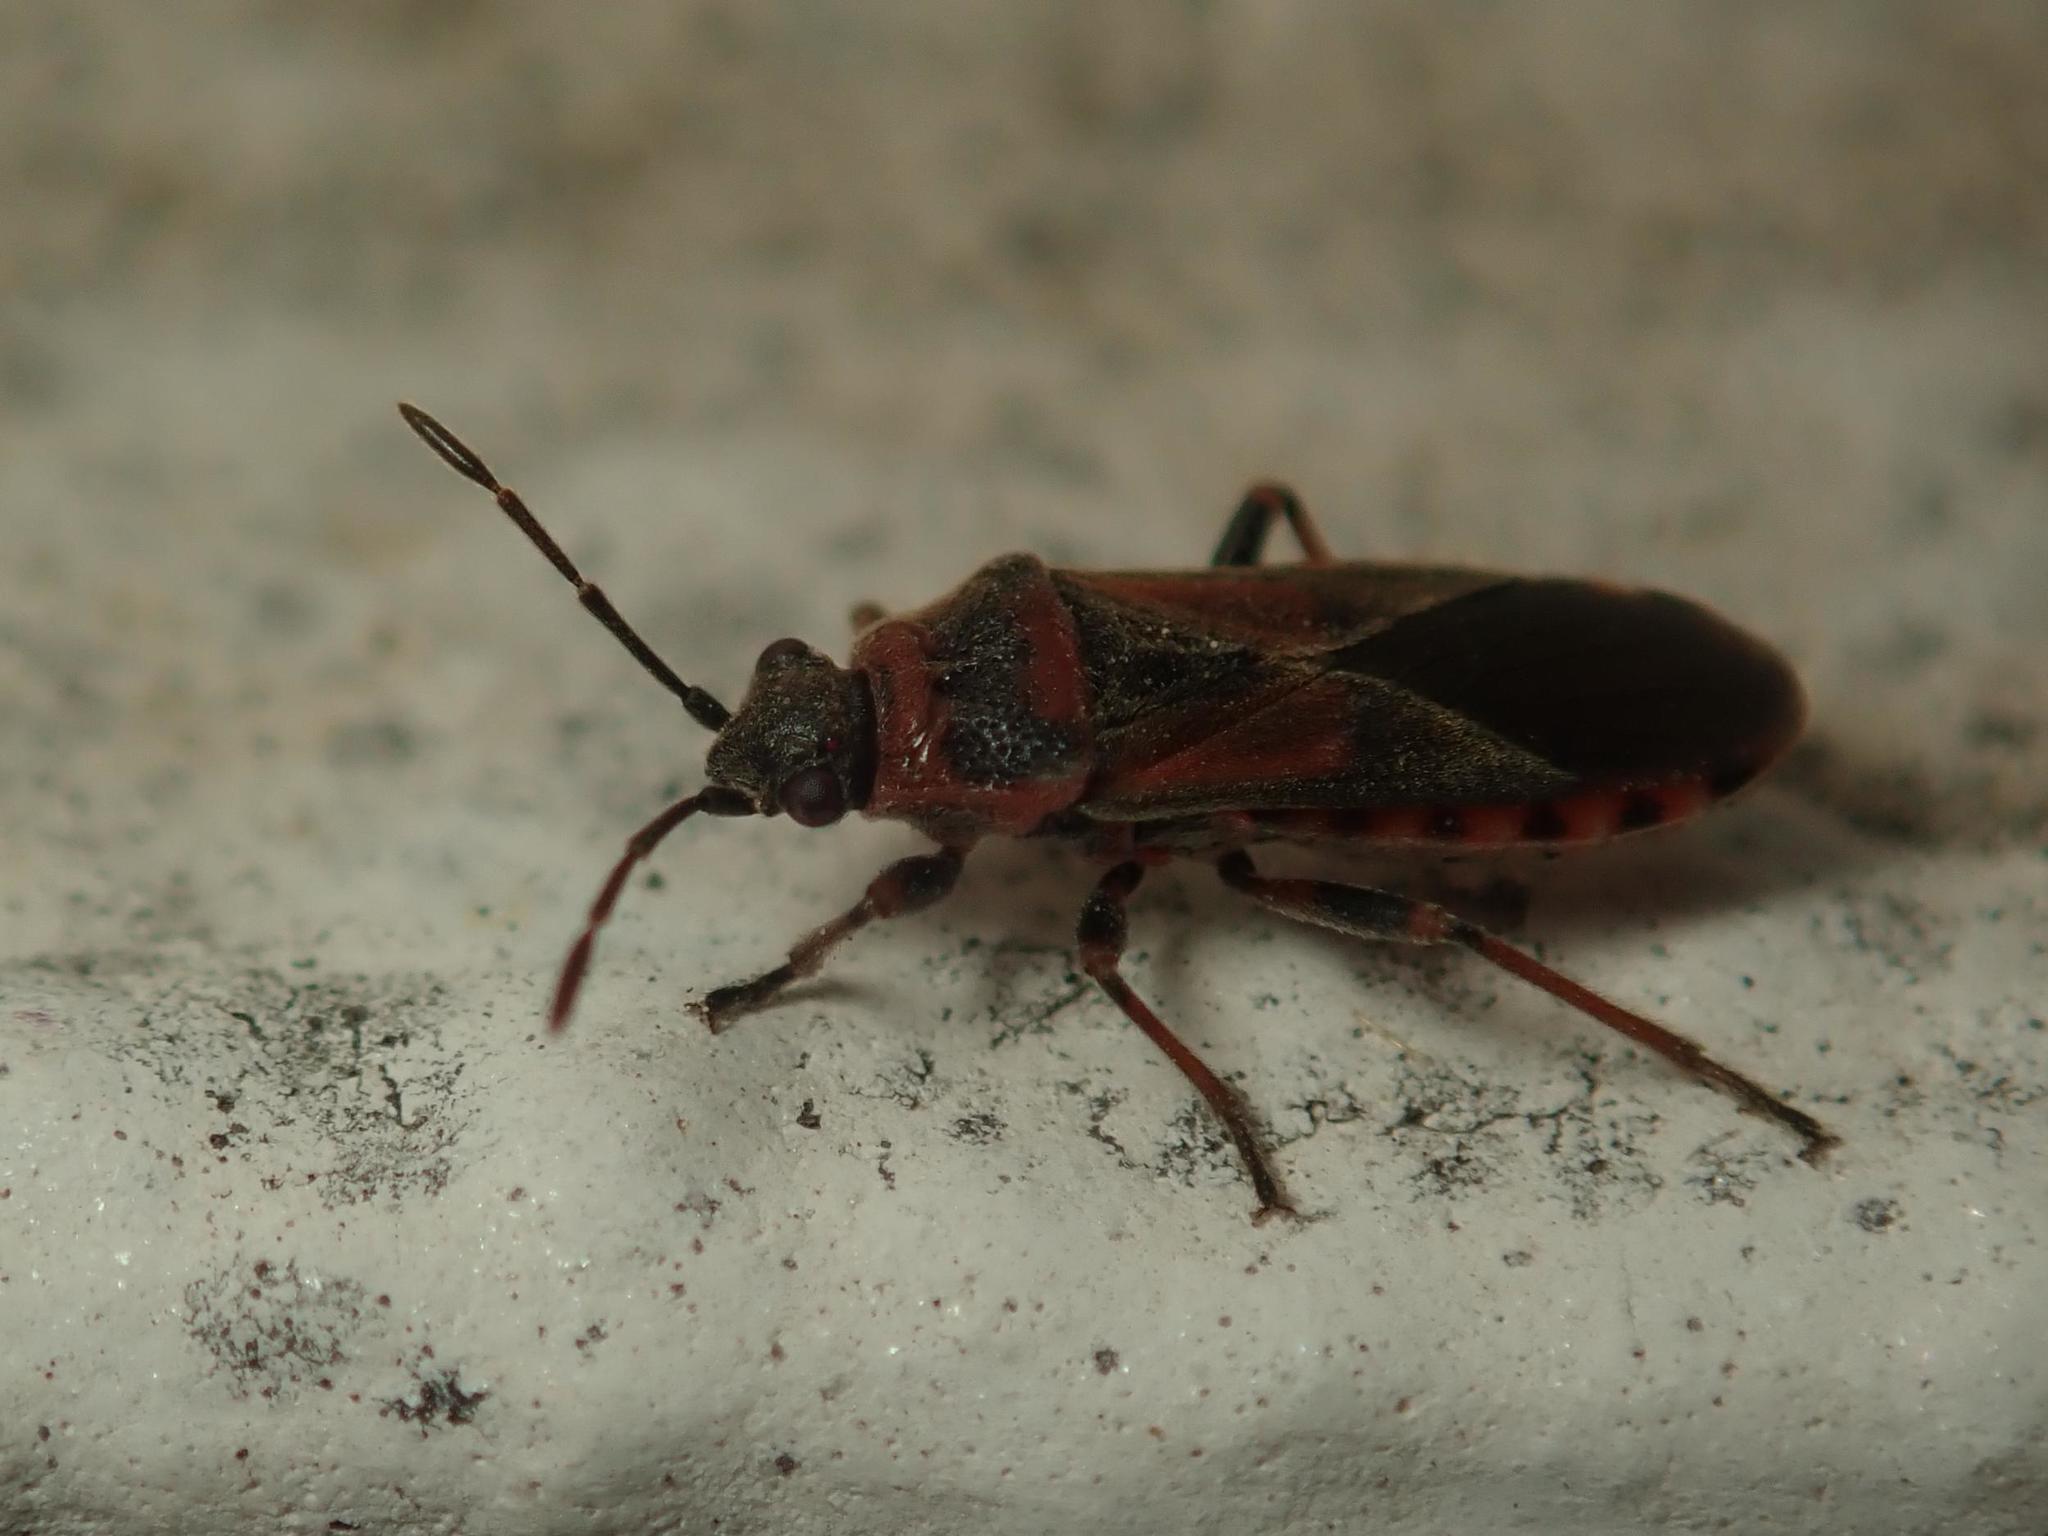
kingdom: Animalia
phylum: Arthropoda
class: Insecta
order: Hemiptera
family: Lygaeidae
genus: Arocatus
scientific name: Arocatus melanocephalus
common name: Lygaeid bug
